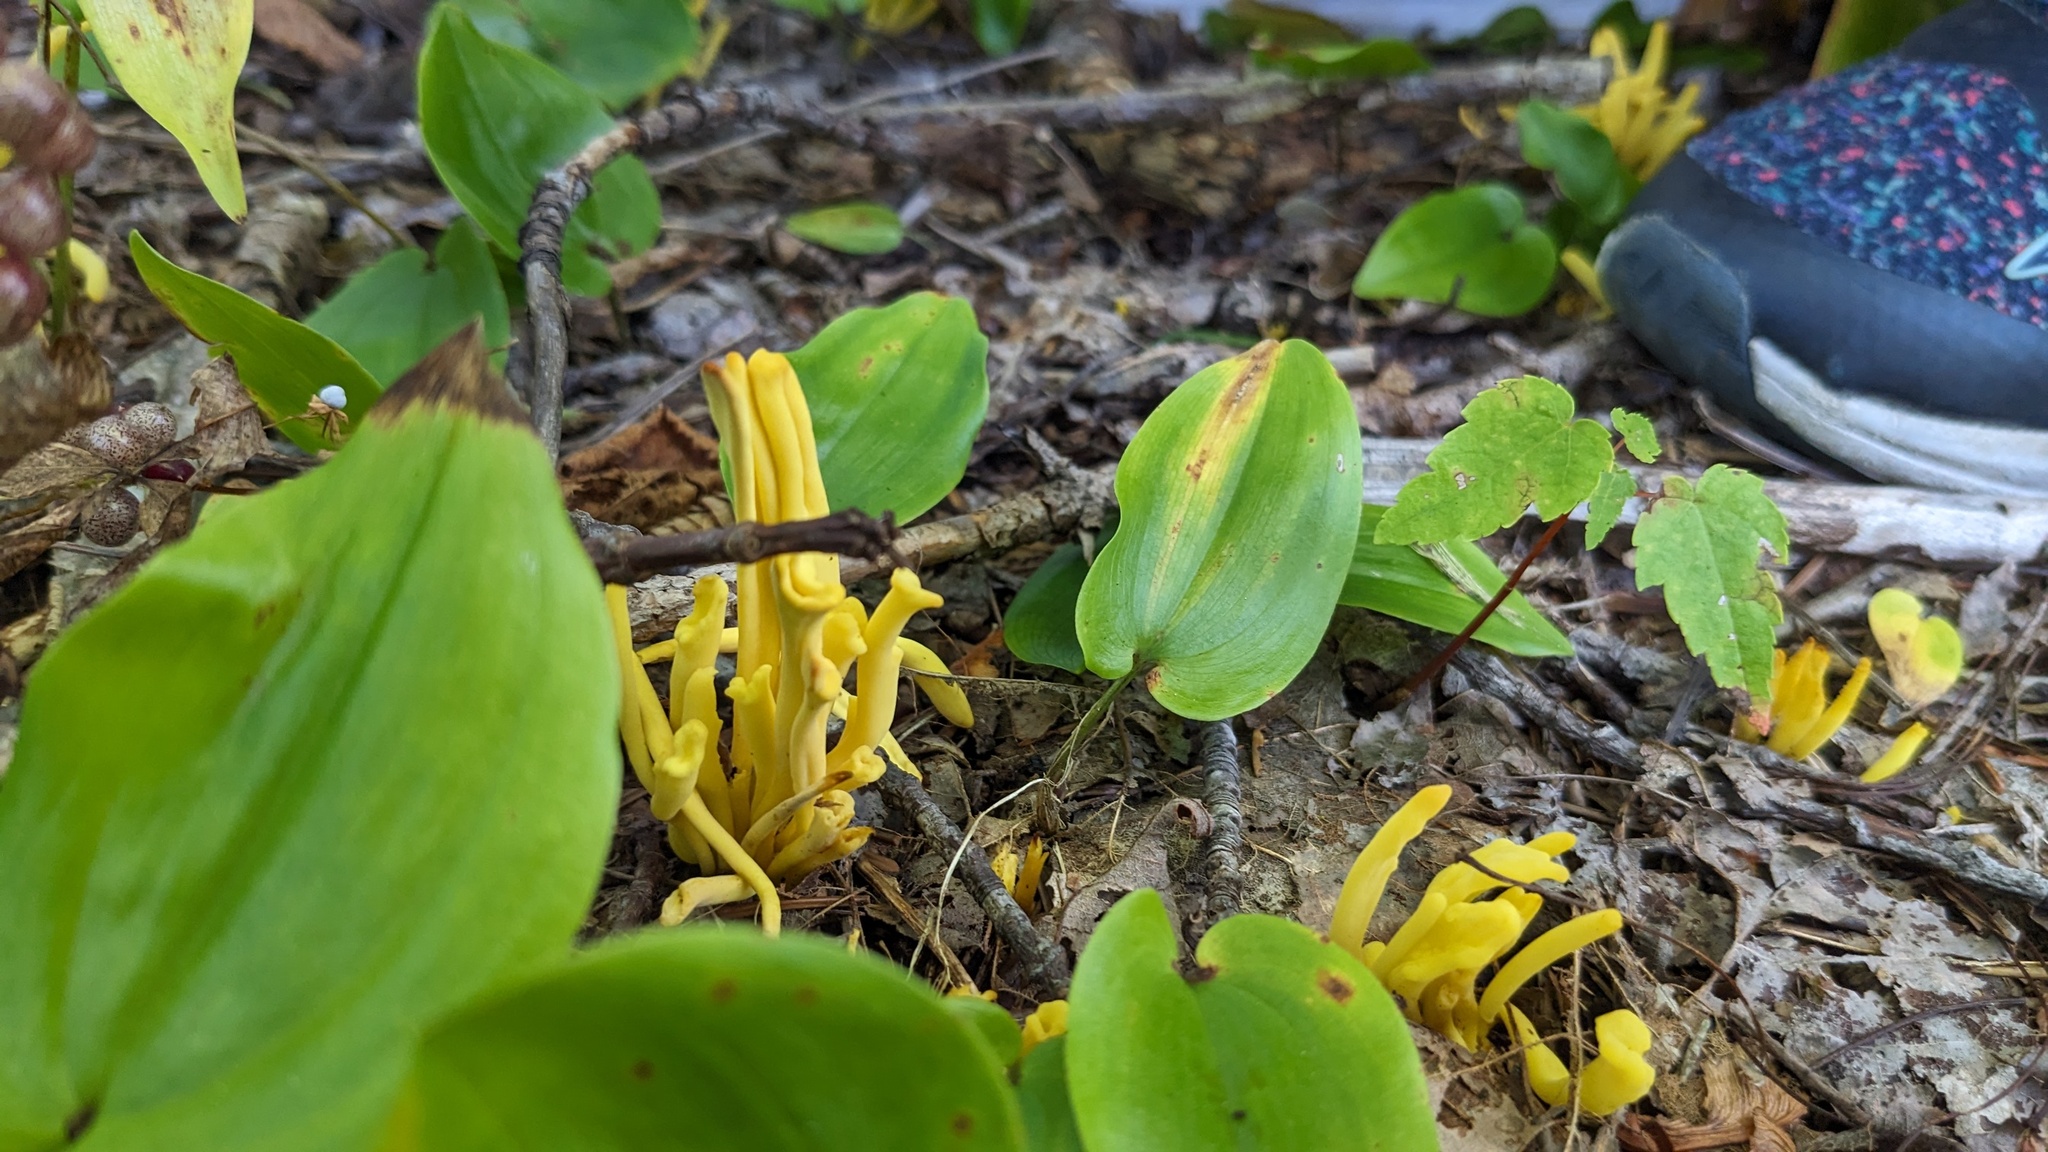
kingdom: Fungi
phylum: Basidiomycota
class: Agaricomycetes
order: Agaricales
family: Clavariaceae
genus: Clavulinopsis
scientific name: Clavulinopsis fusiformis
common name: Golden spindles
